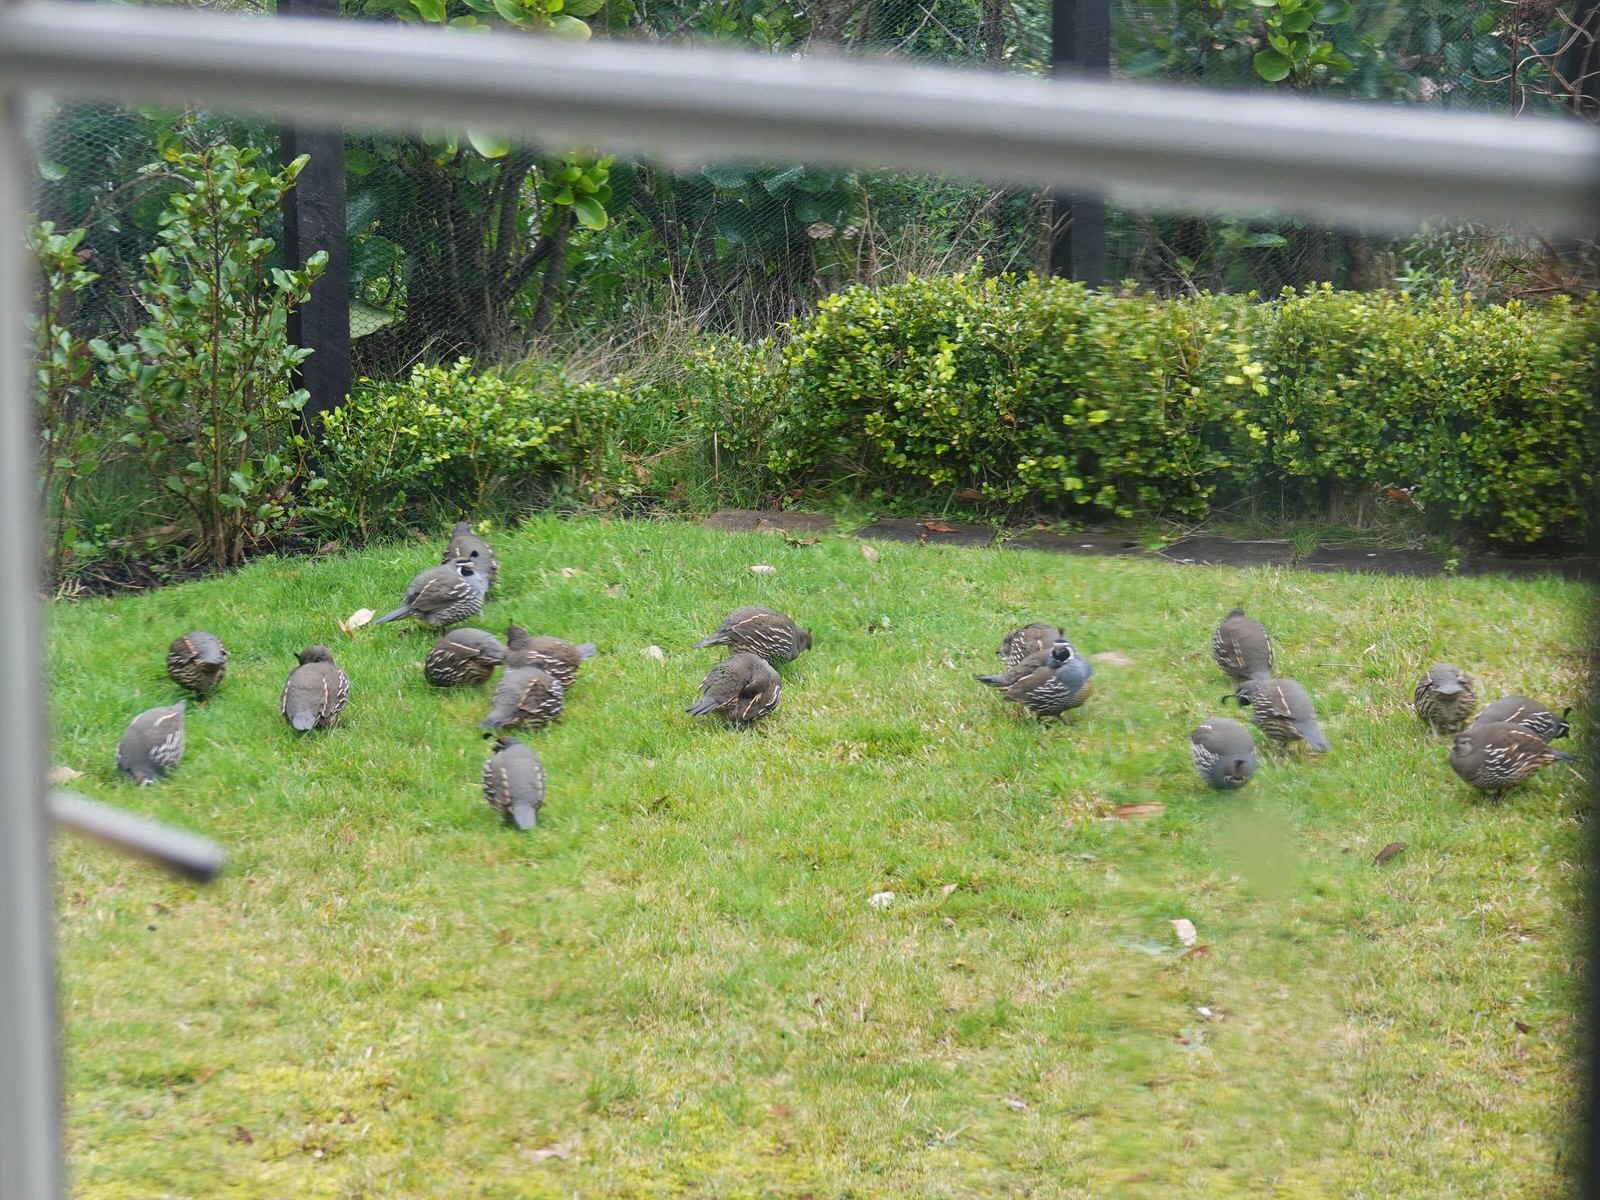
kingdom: Animalia
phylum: Chordata
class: Aves
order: Galliformes
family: Odontophoridae
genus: Callipepla
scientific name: Callipepla californica
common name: California quail
